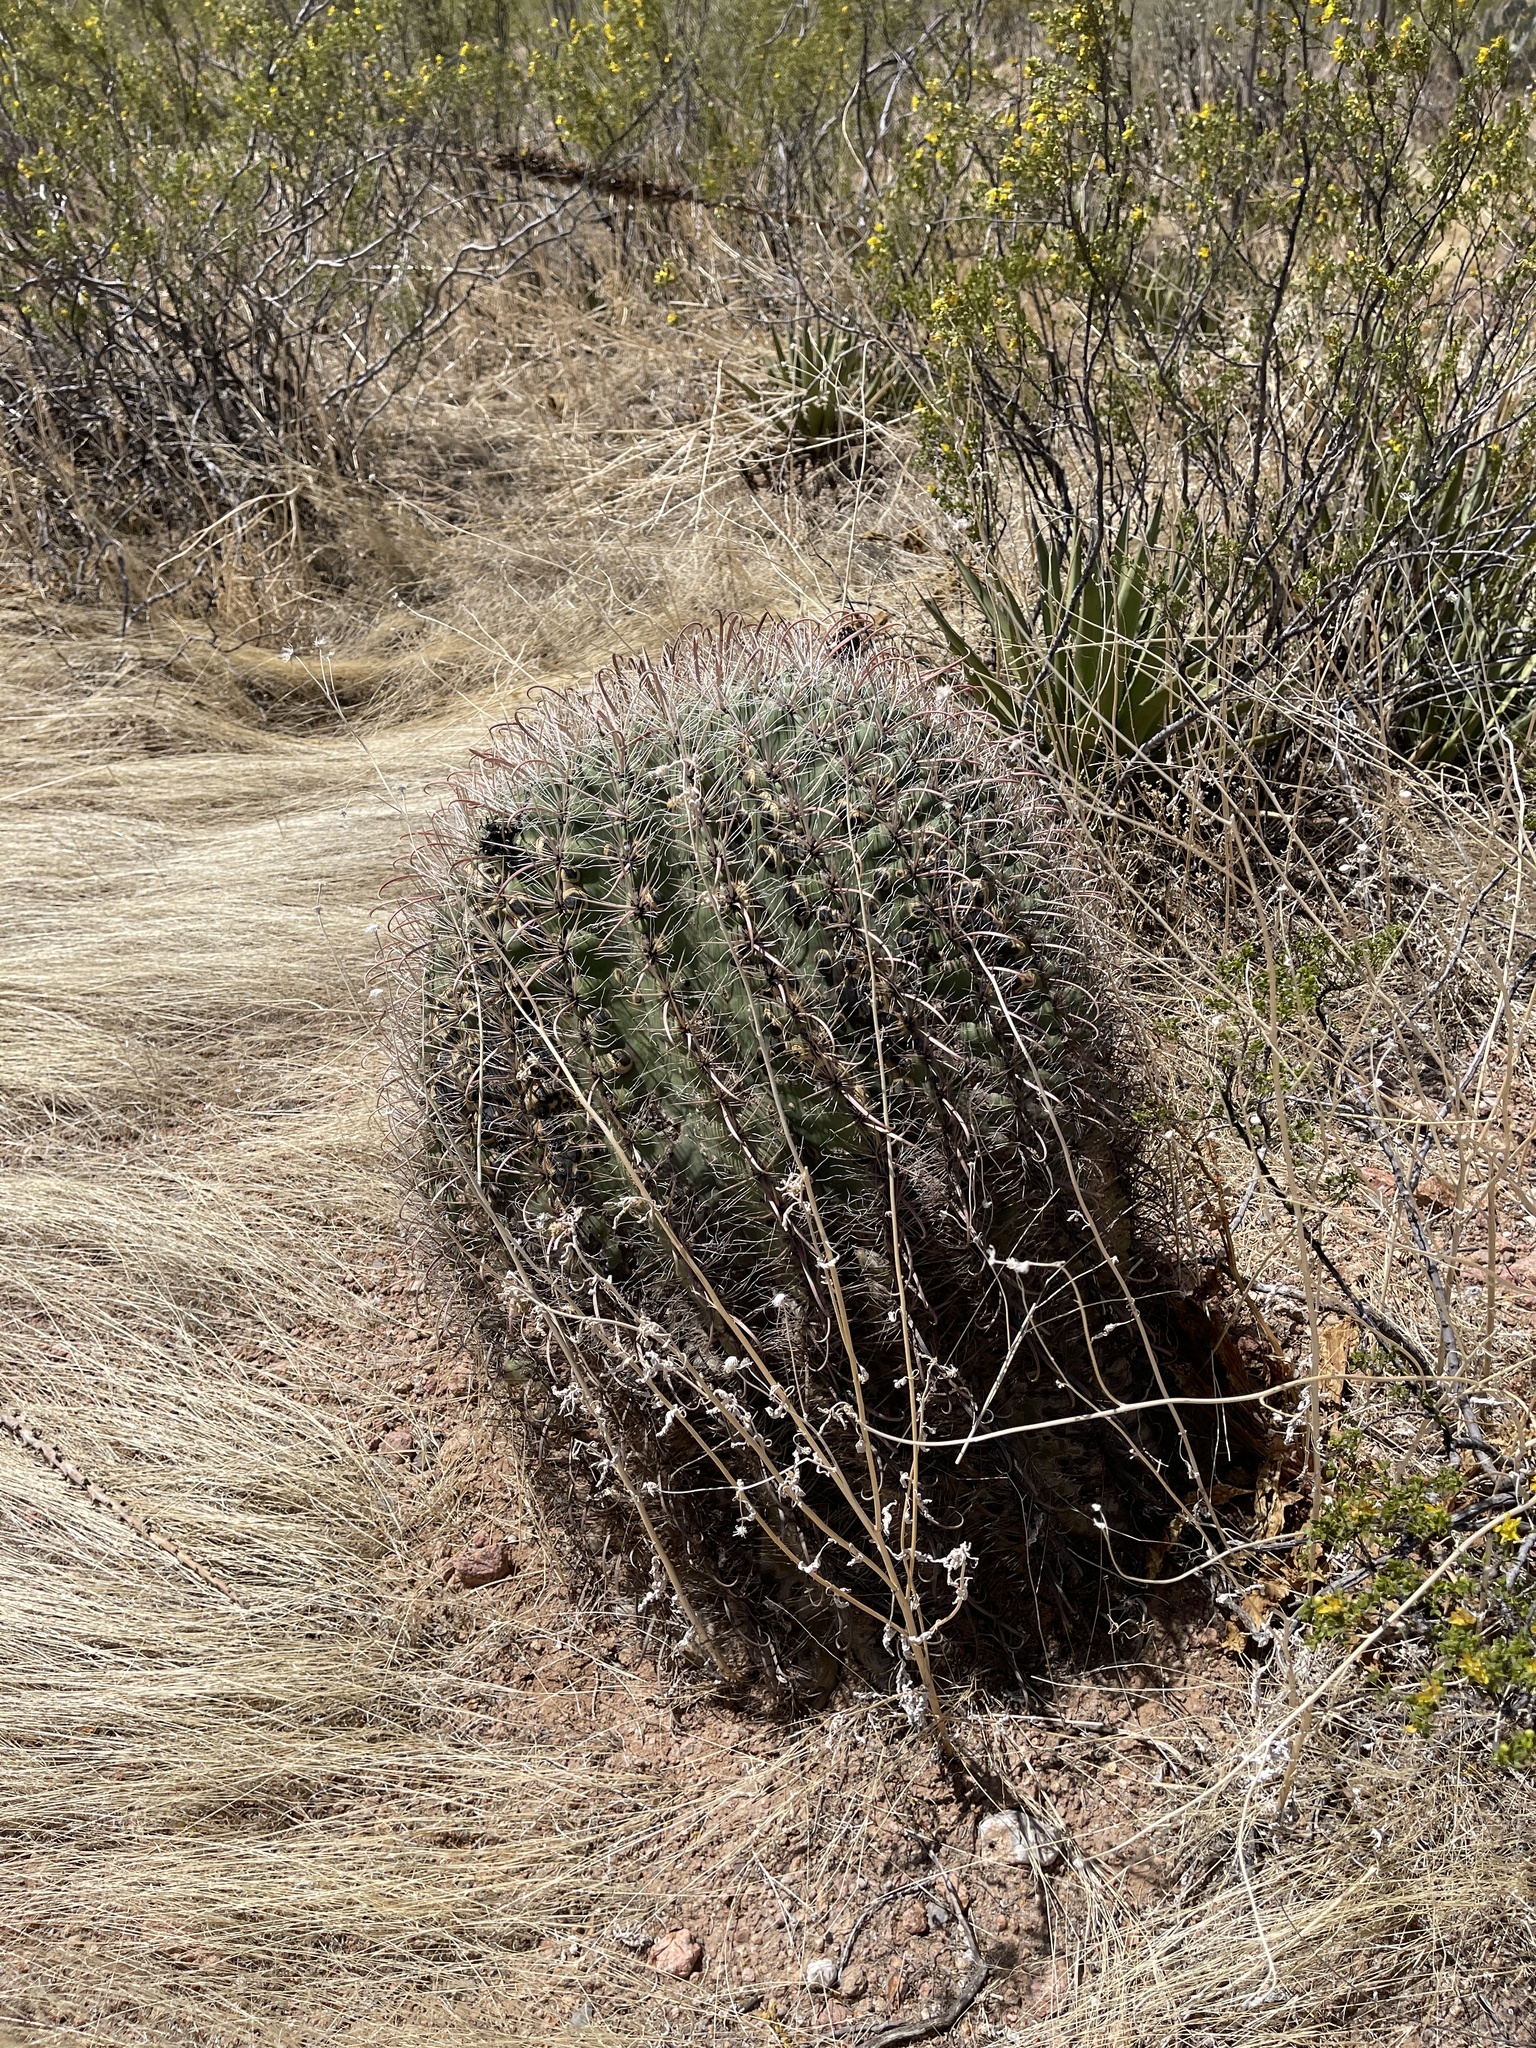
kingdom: Plantae
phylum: Tracheophyta
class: Magnoliopsida
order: Caryophyllales
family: Cactaceae
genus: Ferocactus
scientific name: Ferocactus wislizeni
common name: Candy barrel cactus
